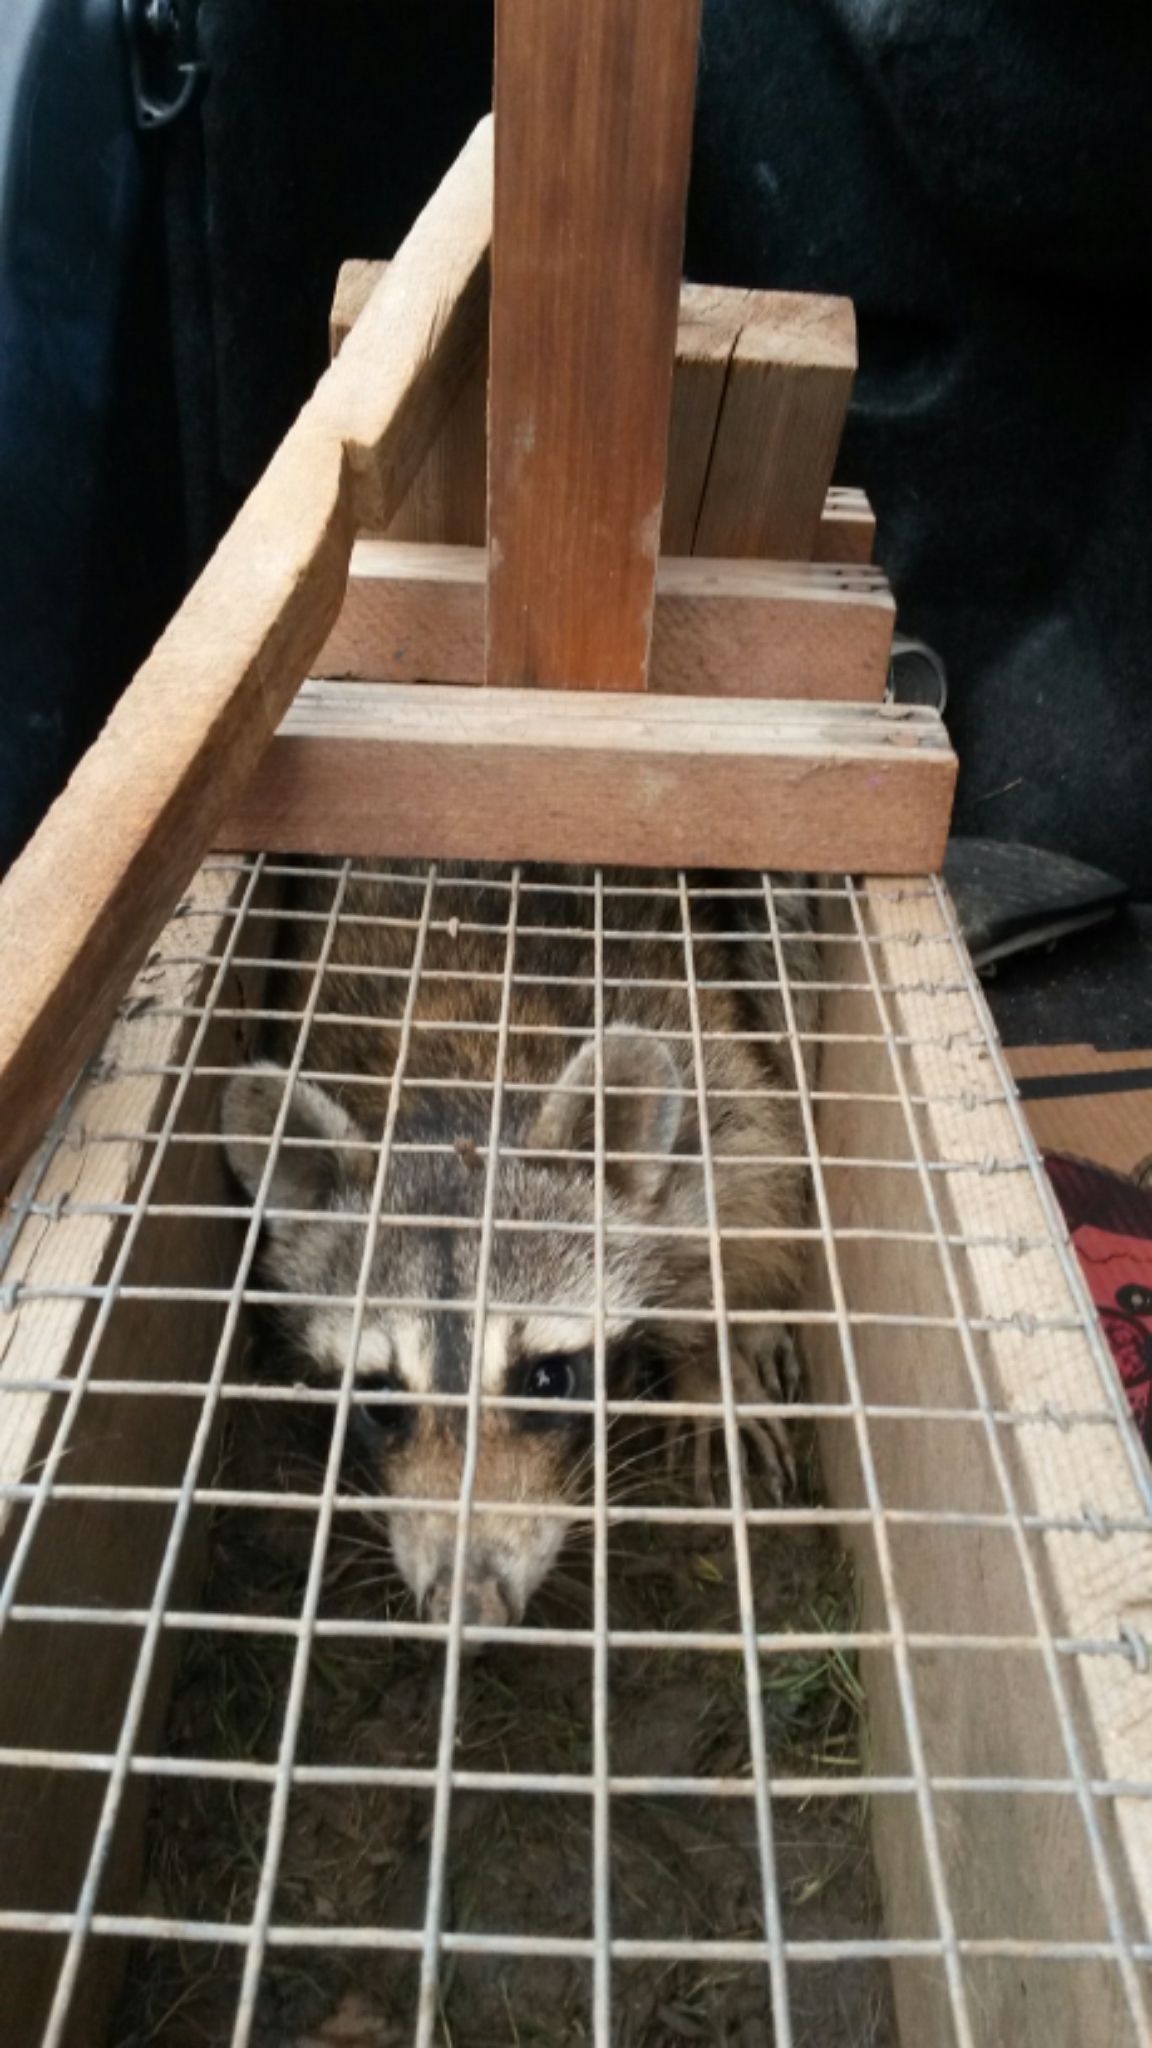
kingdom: Animalia
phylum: Chordata
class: Mammalia
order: Carnivora
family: Procyonidae
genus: Procyon
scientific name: Procyon lotor
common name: Raccoon
